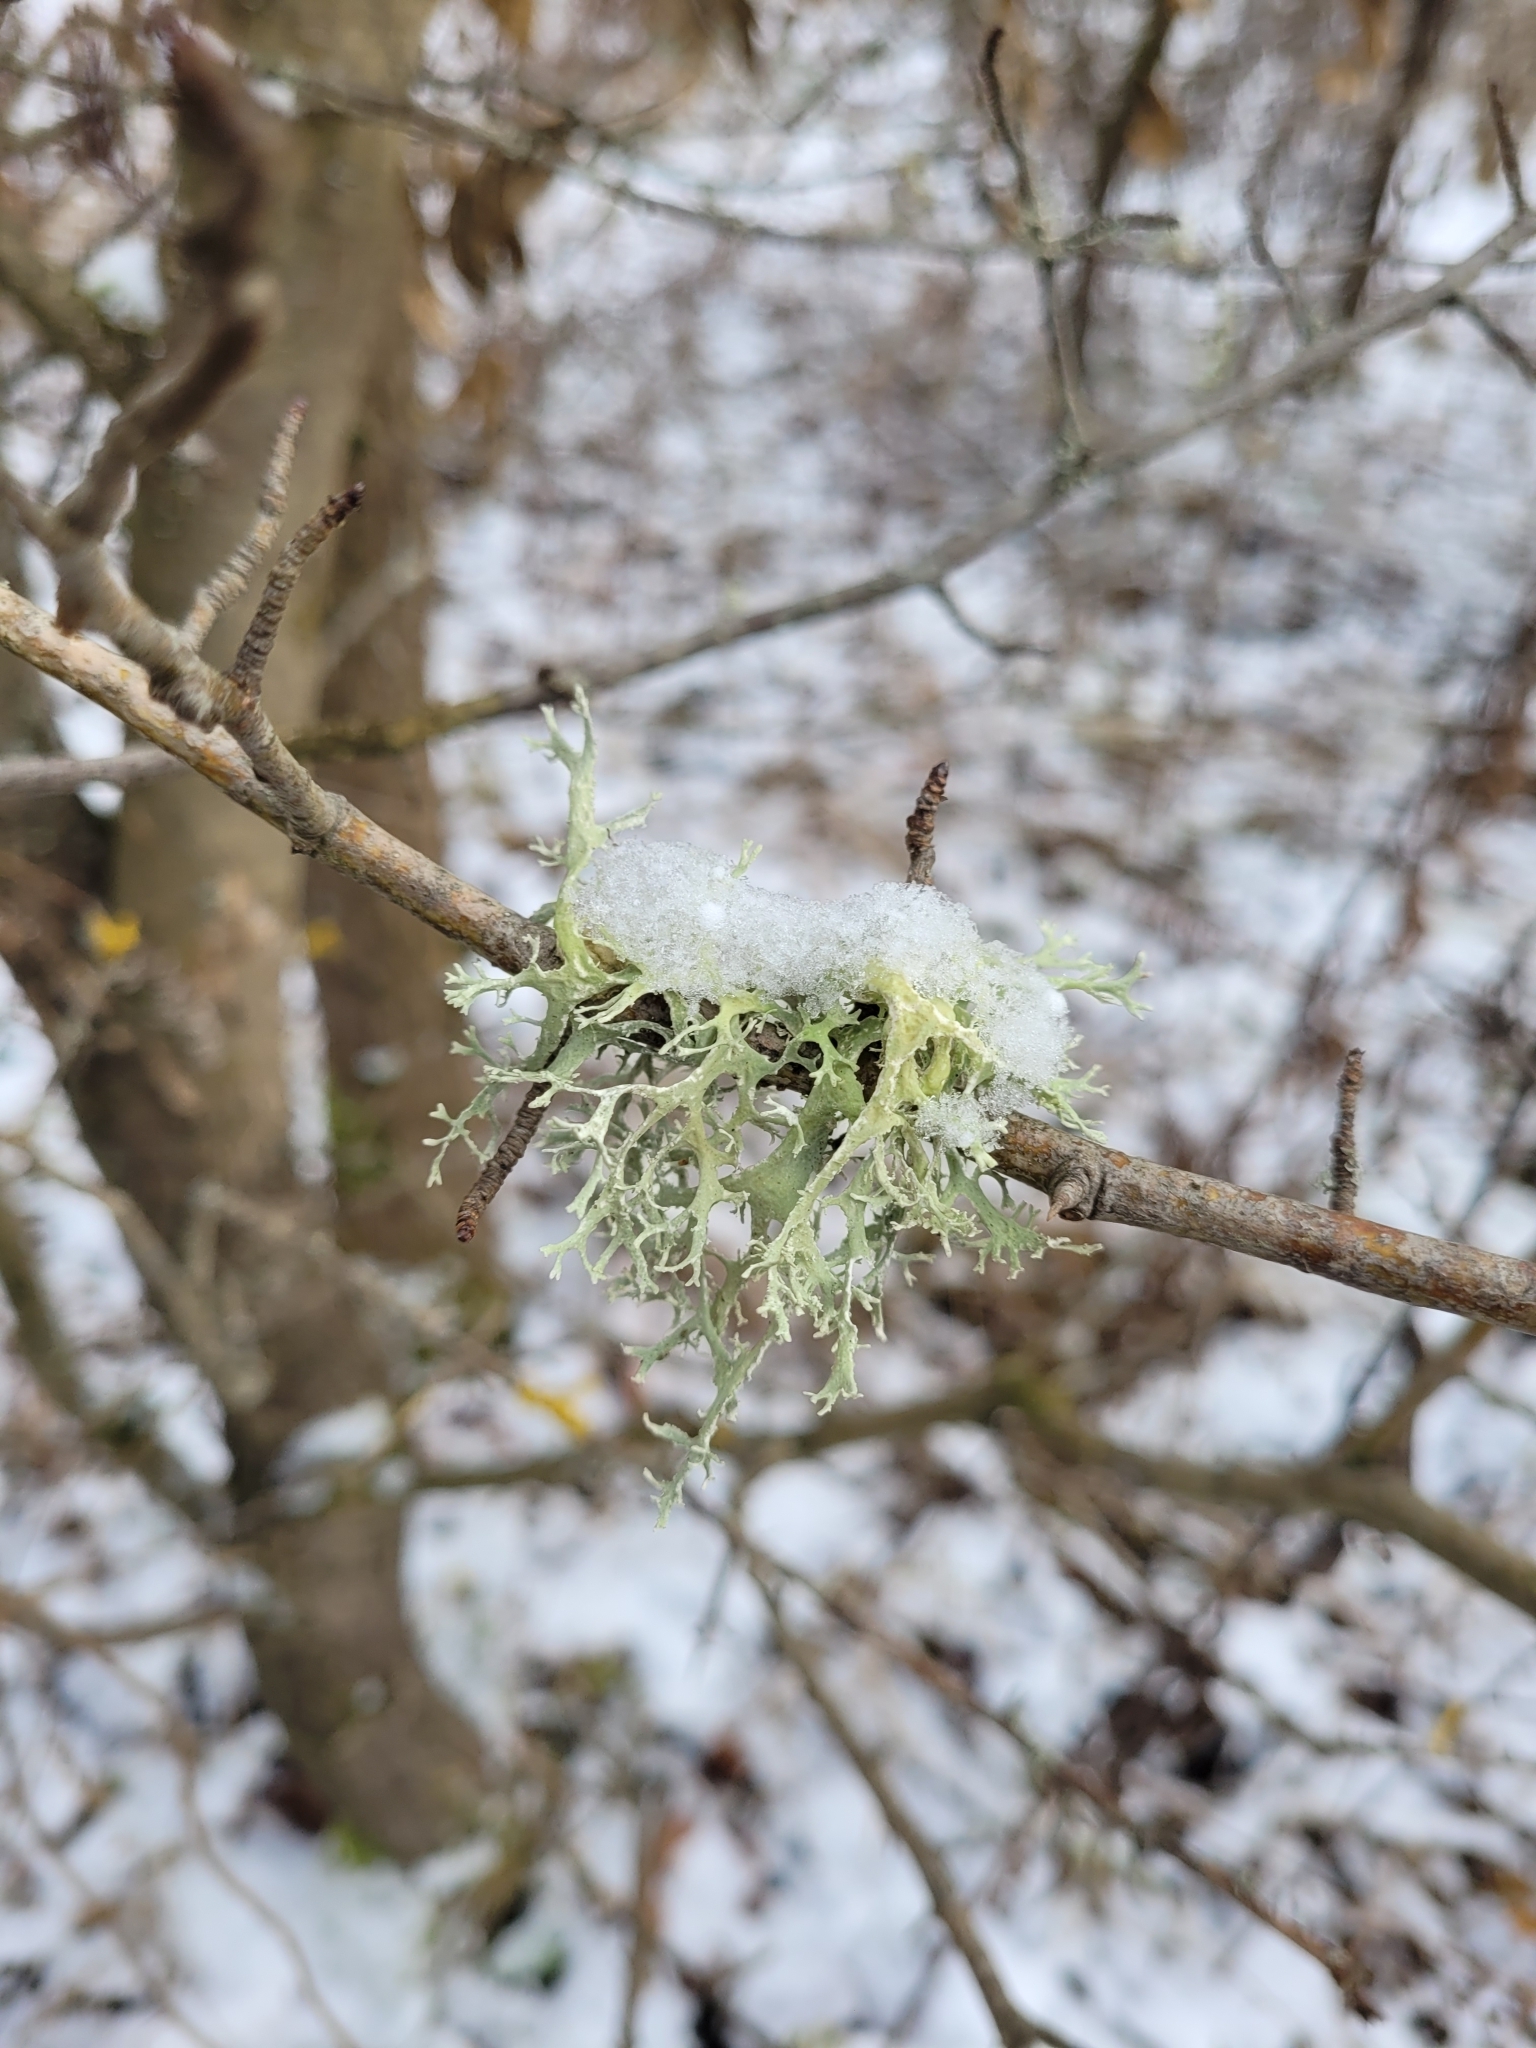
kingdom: Fungi
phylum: Ascomycota
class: Lecanoromycetes
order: Lecanorales
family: Parmeliaceae
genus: Evernia
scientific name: Evernia prunastri
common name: Oak moss
